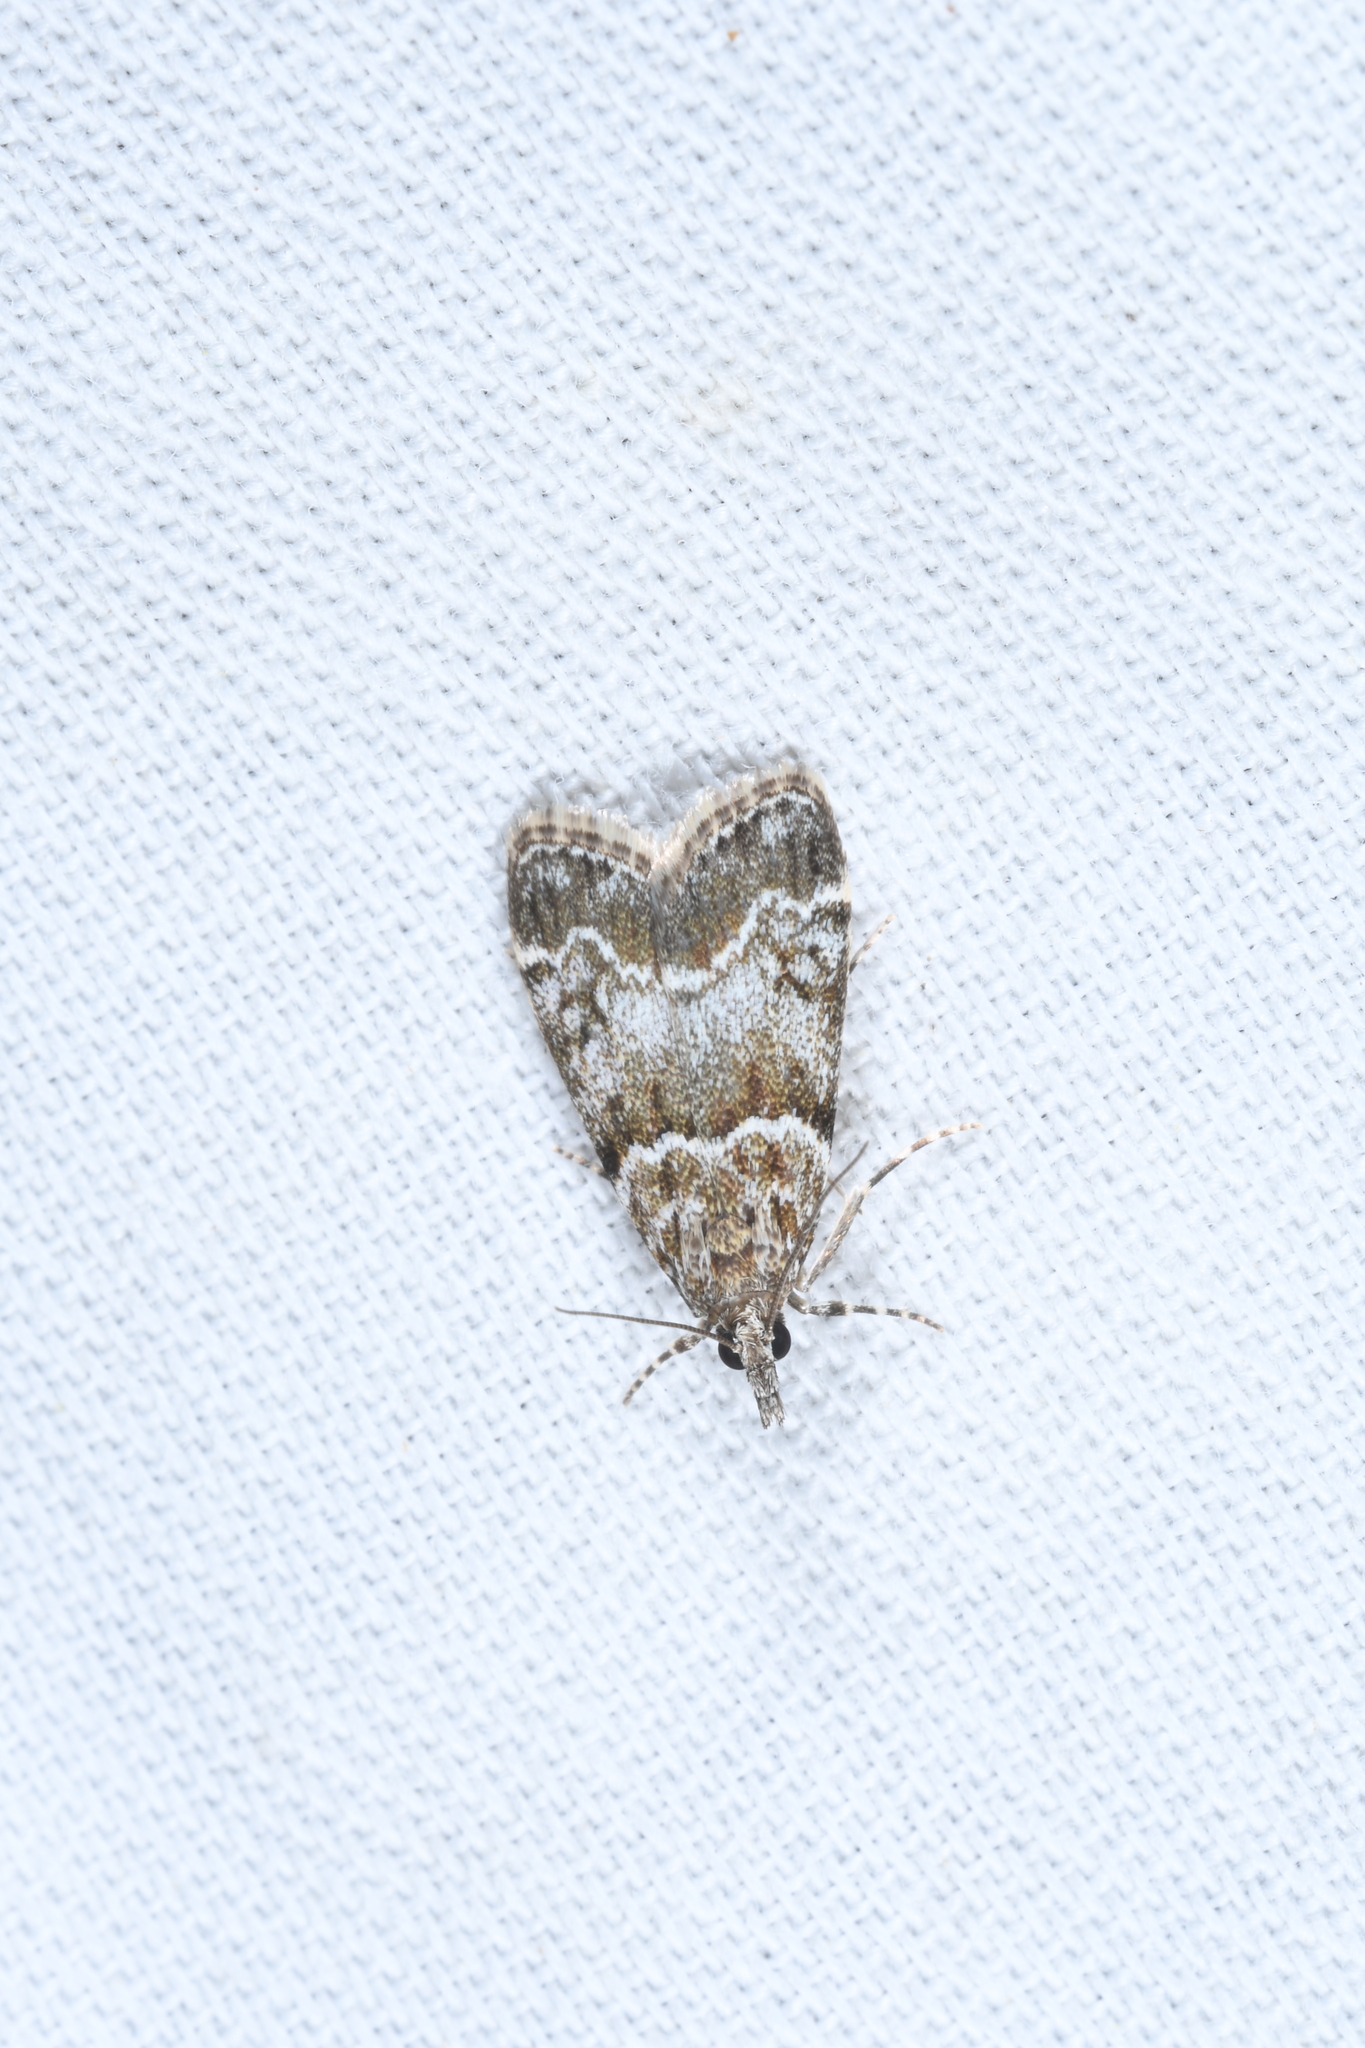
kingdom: Animalia
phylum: Arthropoda
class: Insecta
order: Lepidoptera
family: Crambidae
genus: Eudonia
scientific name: Eudonia mercurella
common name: Small grey
